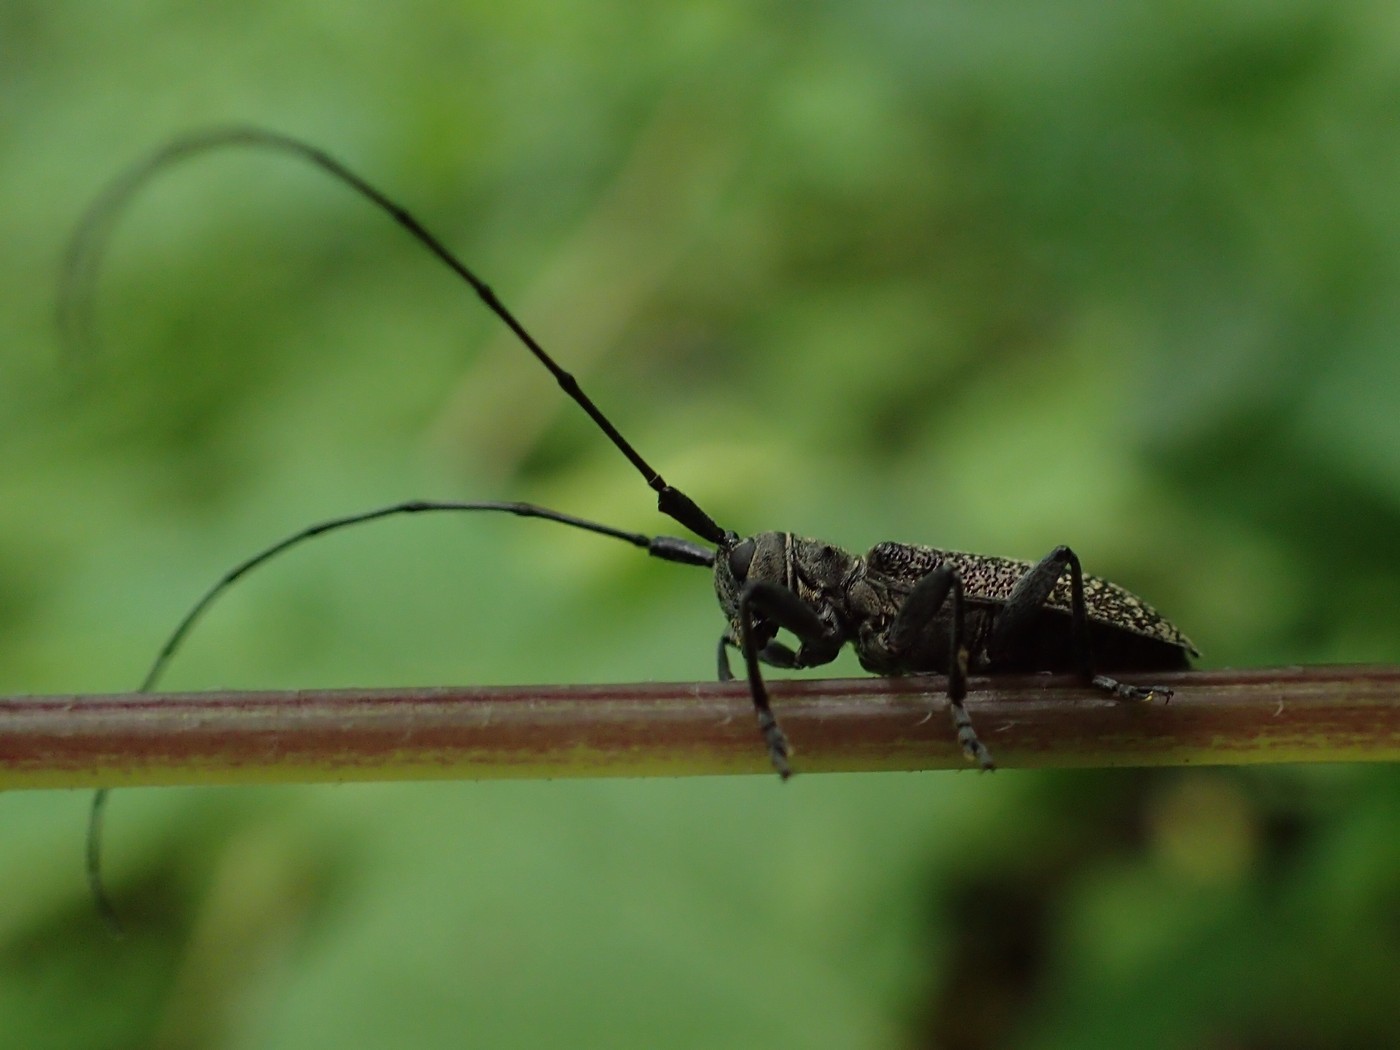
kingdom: Animalia
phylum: Arthropoda
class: Insecta
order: Coleoptera
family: Cerambycidae
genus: Microgoes
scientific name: Microgoes oculatus
